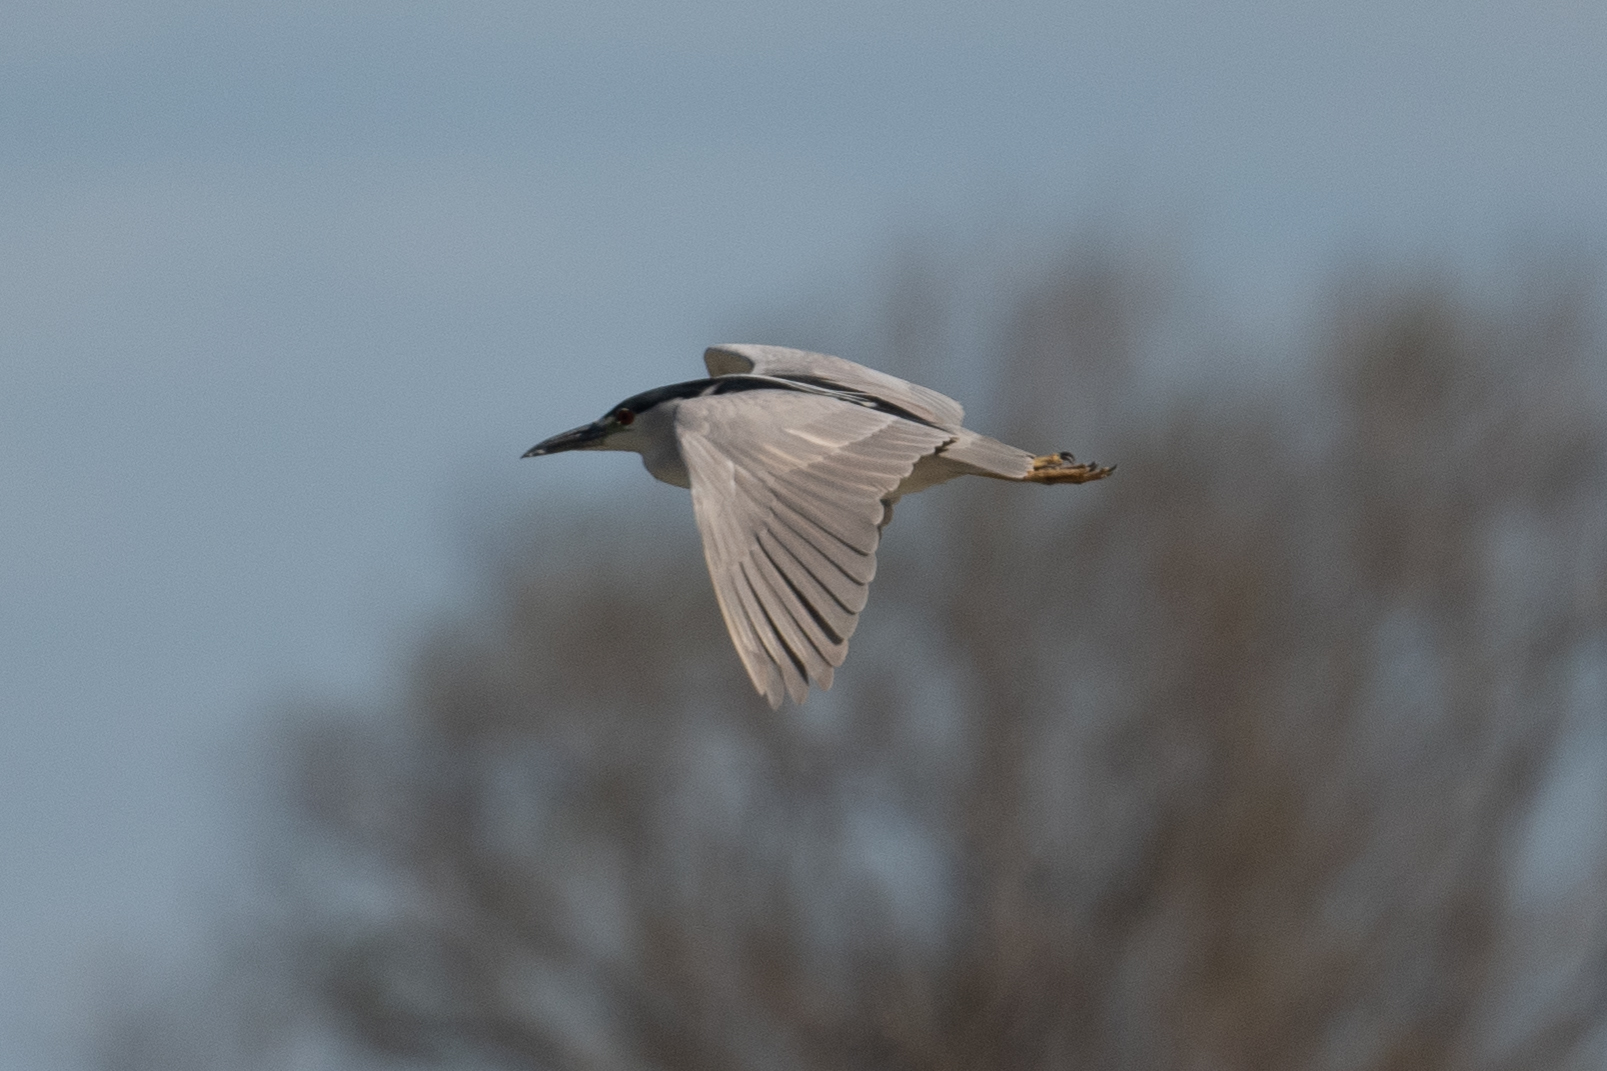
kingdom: Animalia
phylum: Chordata
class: Aves
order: Pelecaniformes
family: Ardeidae
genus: Nycticorax
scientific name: Nycticorax nycticorax
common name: Black-crowned night heron
